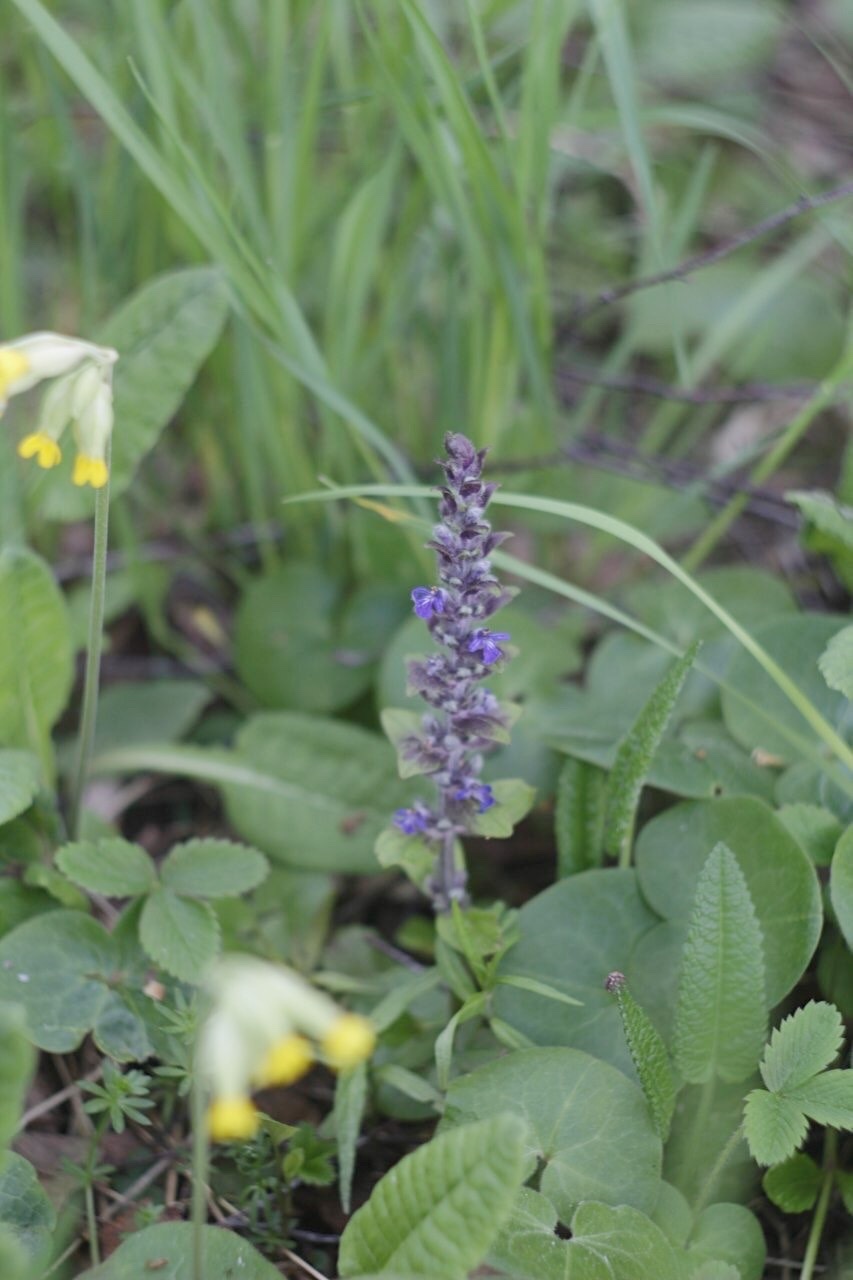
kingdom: Plantae
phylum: Tracheophyta
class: Magnoliopsida
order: Lamiales
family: Lamiaceae
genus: Ajuga
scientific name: Ajuga reptans
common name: Bugle
